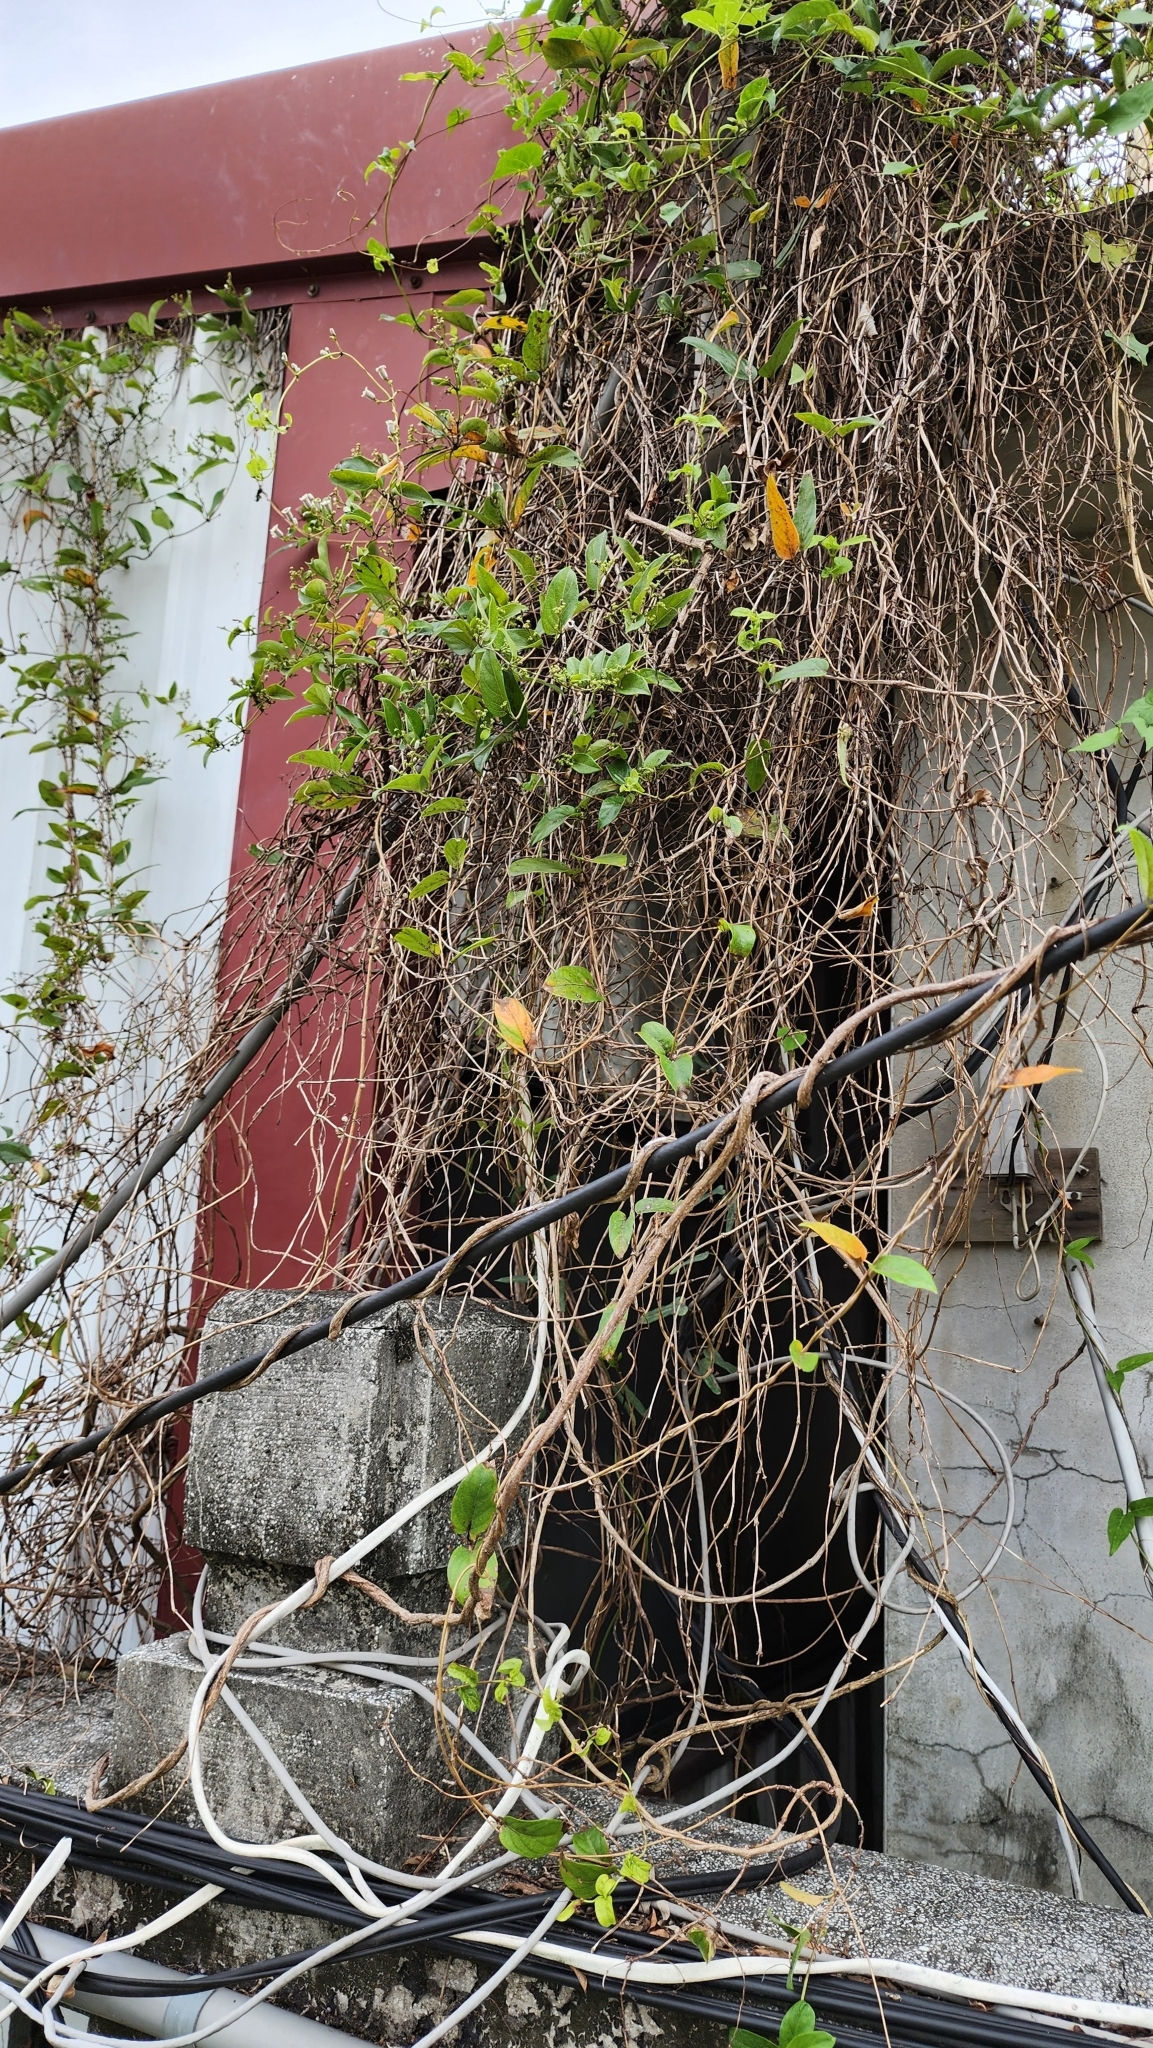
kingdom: Plantae
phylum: Tracheophyta
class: Magnoliopsida
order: Gentianales
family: Rubiaceae
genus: Paederia
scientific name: Paederia foetida
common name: Stinkvine
